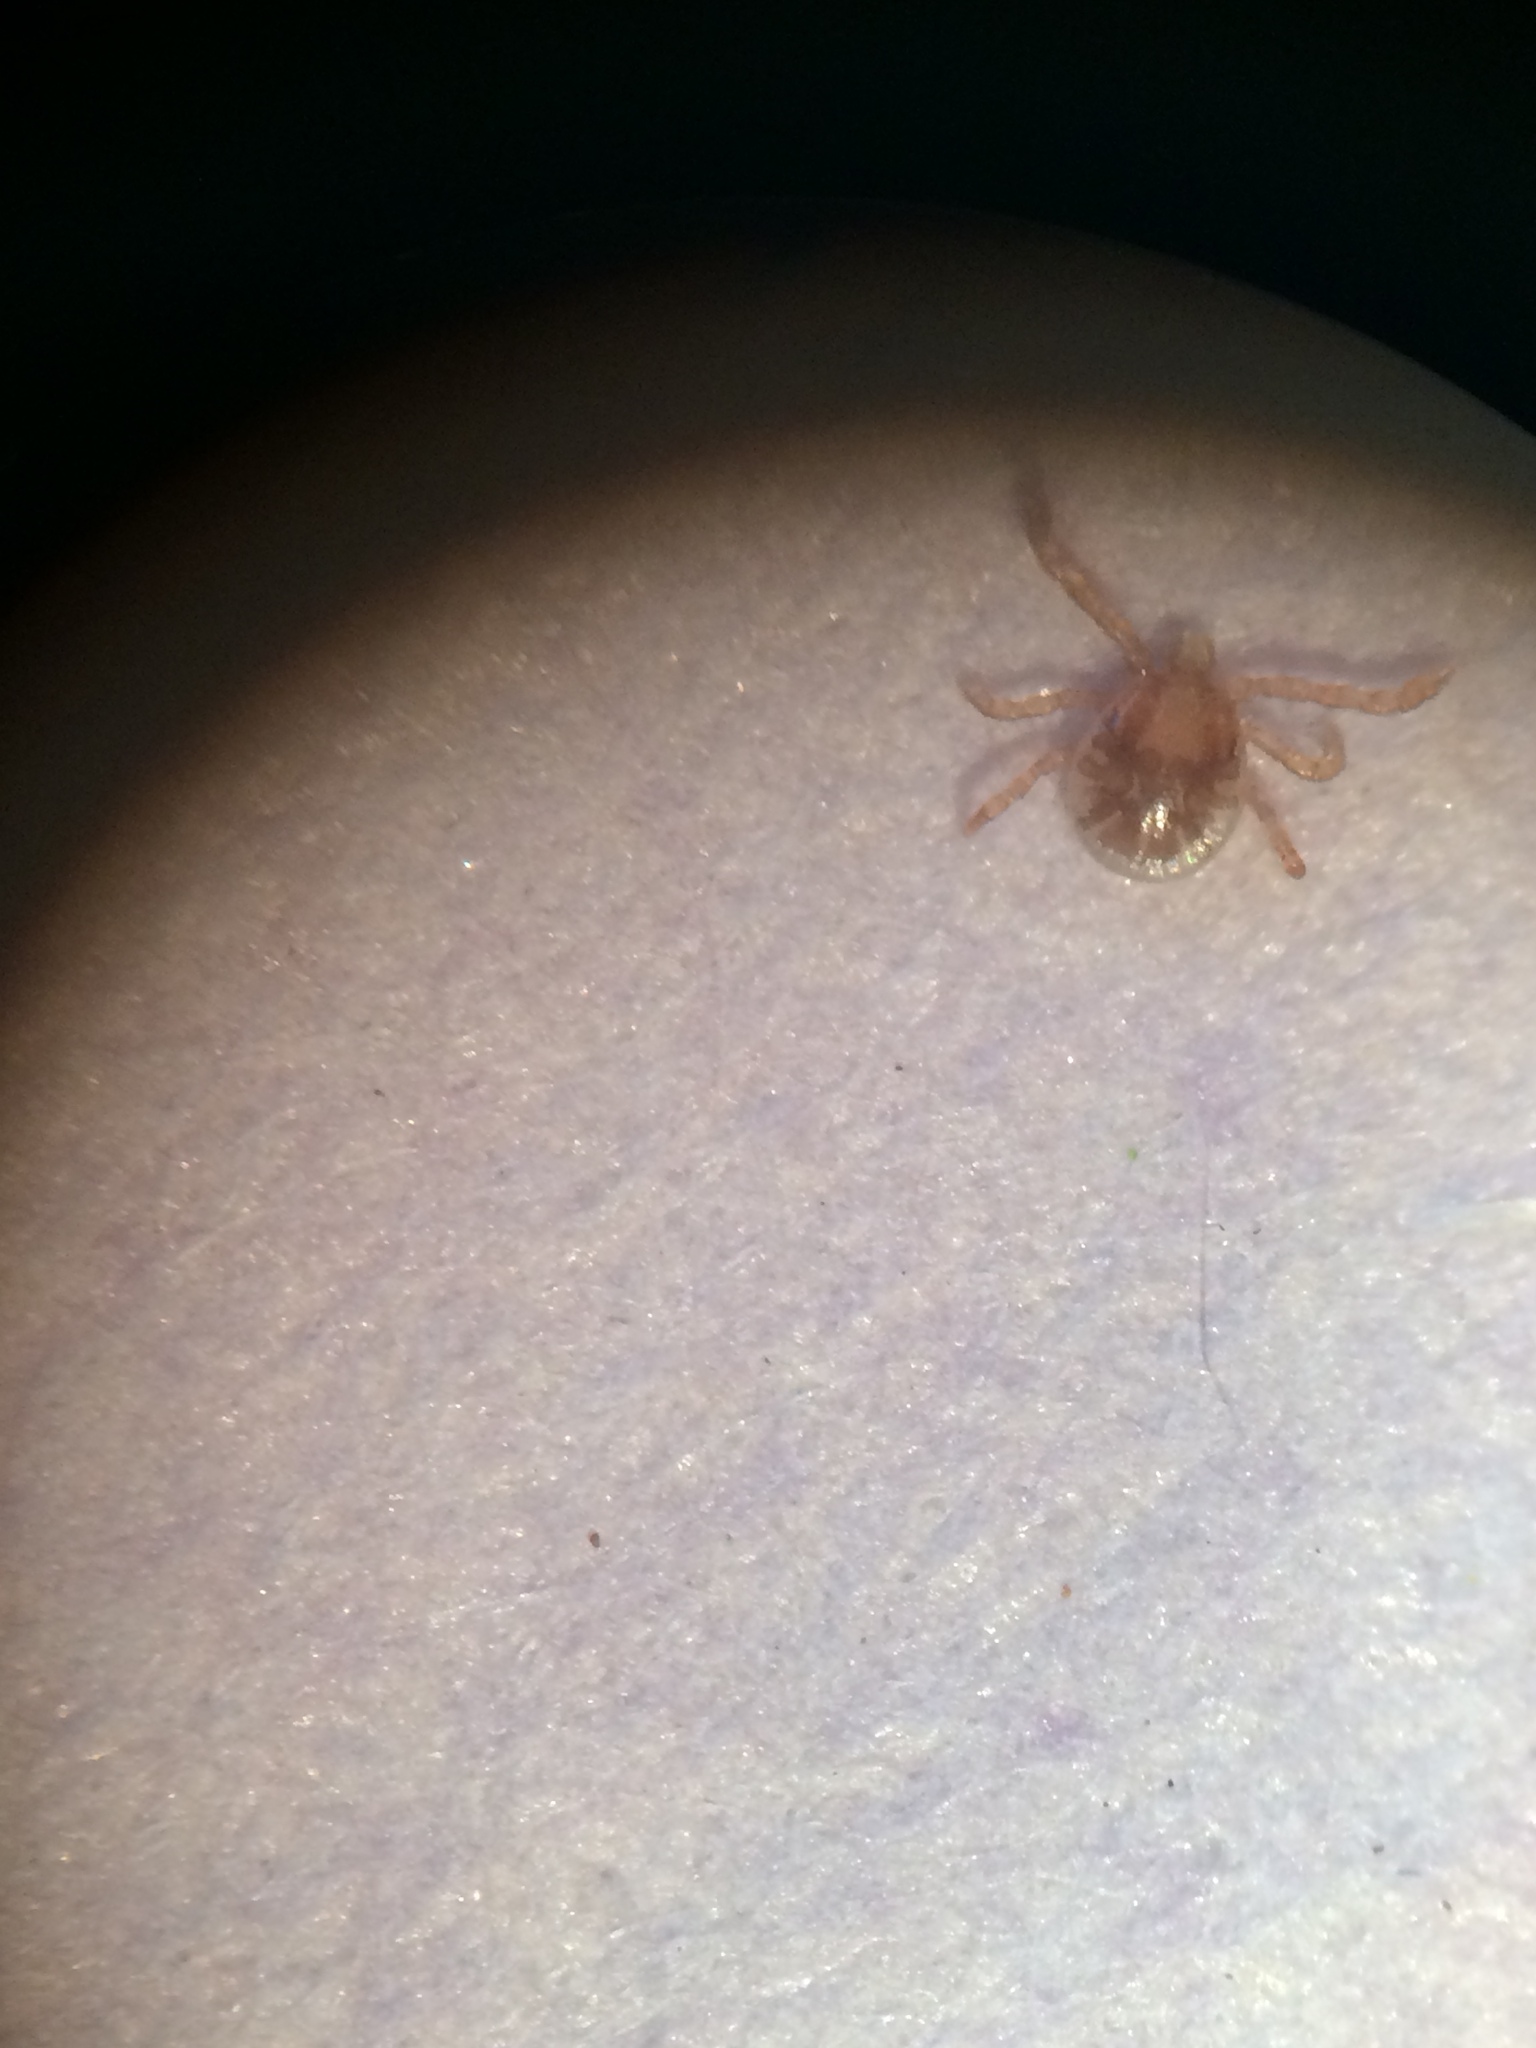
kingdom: Animalia
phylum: Arthropoda
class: Arachnida
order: Ixodida
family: Ixodidae
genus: Amblyomma
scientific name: Amblyomma americanum
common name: Lone star tick
